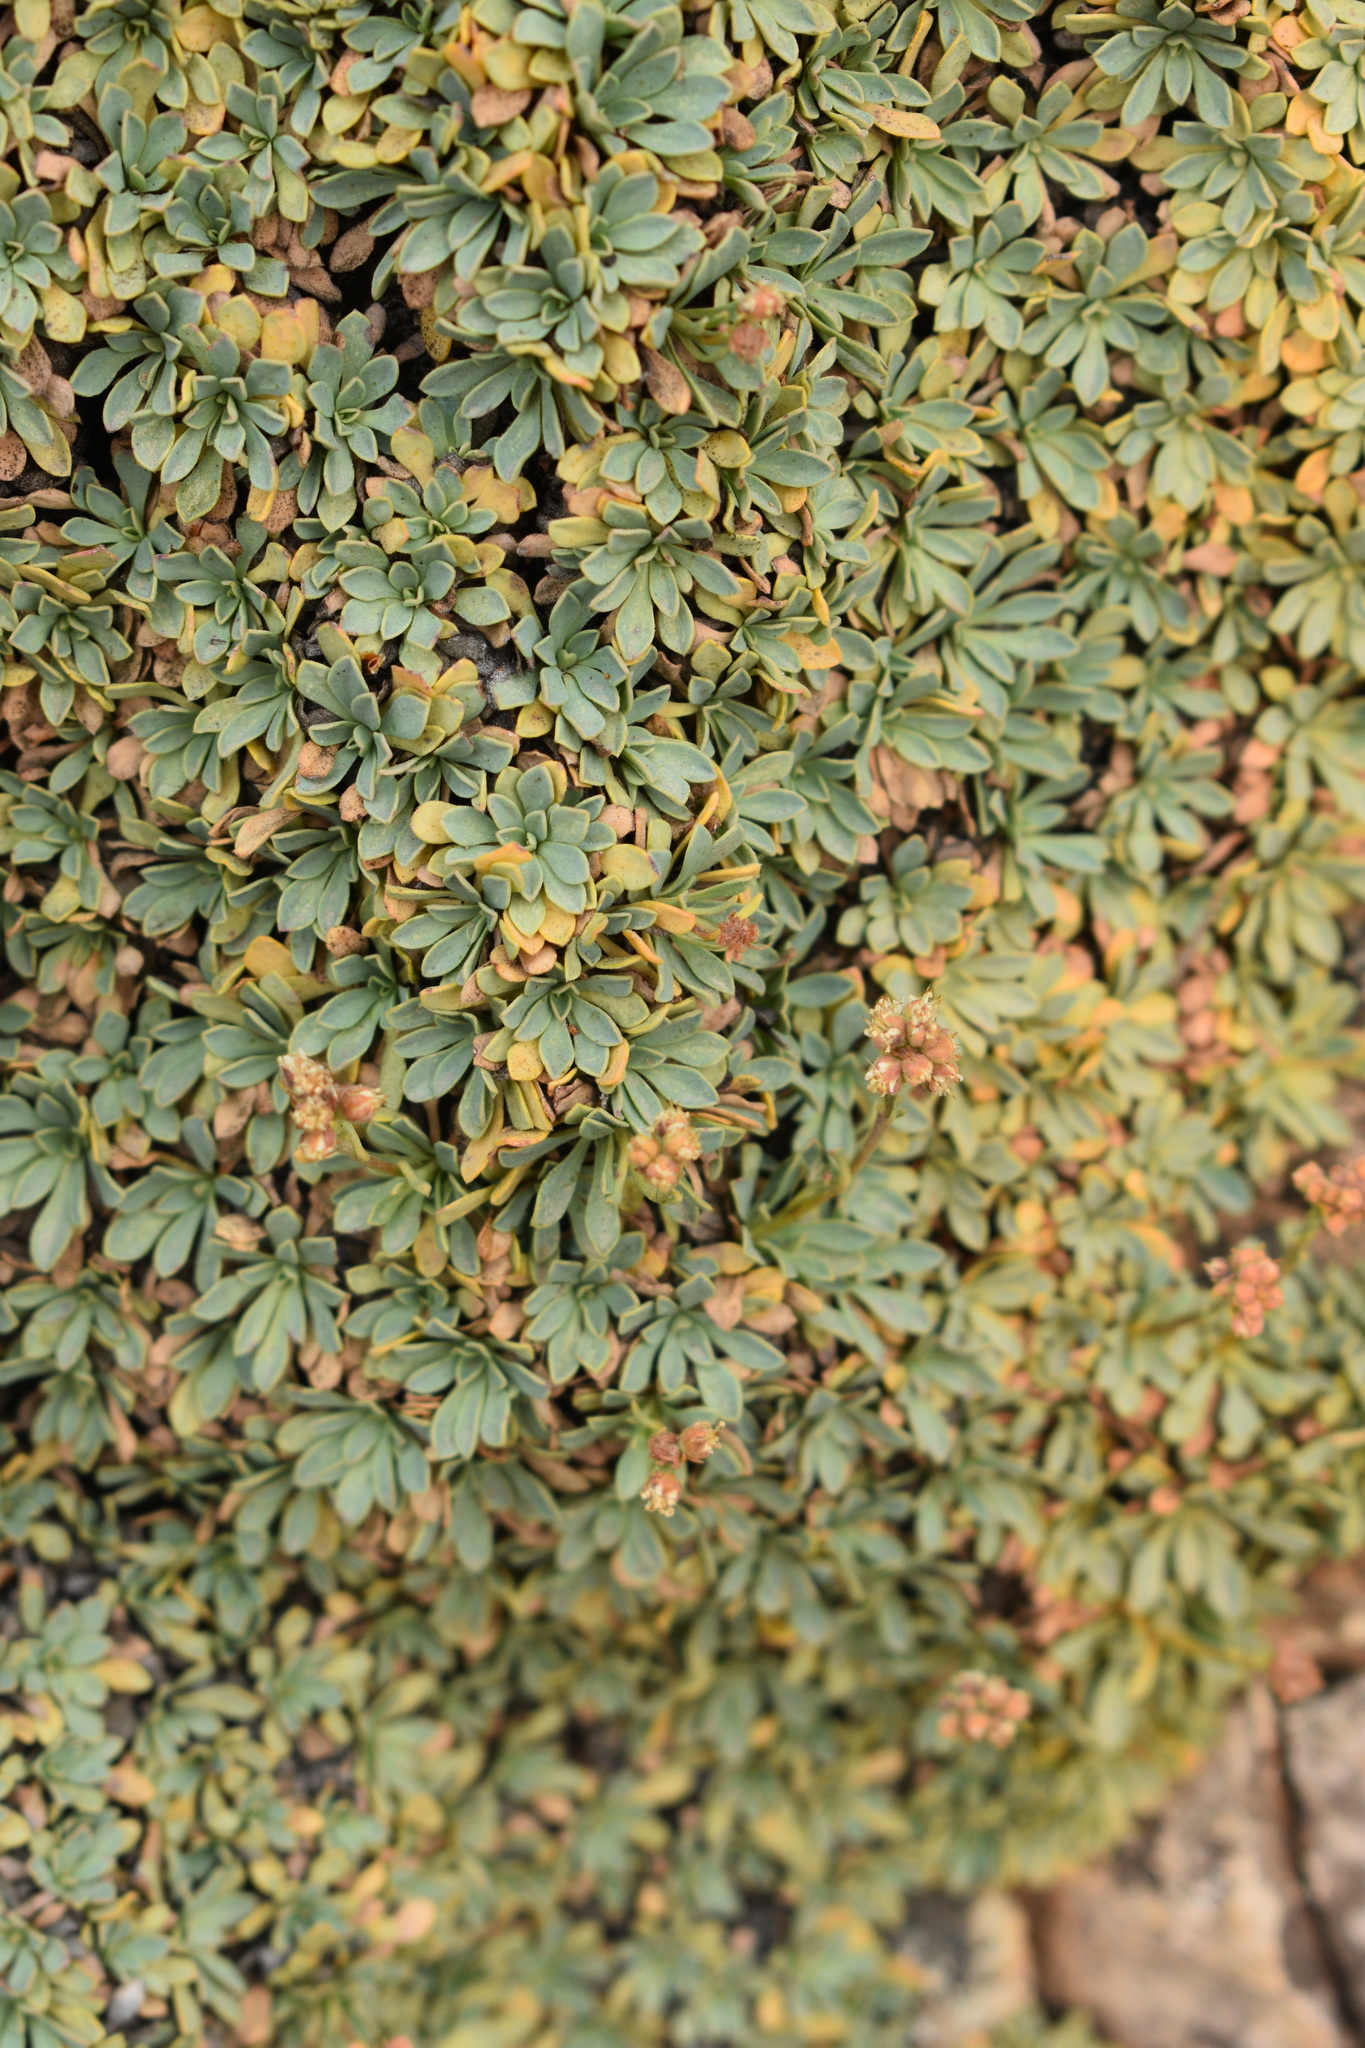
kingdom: Plantae
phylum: Tracheophyta
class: Magnoliopsida
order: Rosales
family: Rosaceae
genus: Petrophytum
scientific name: Petrophytum caespitosum
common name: Mat rockspirea
